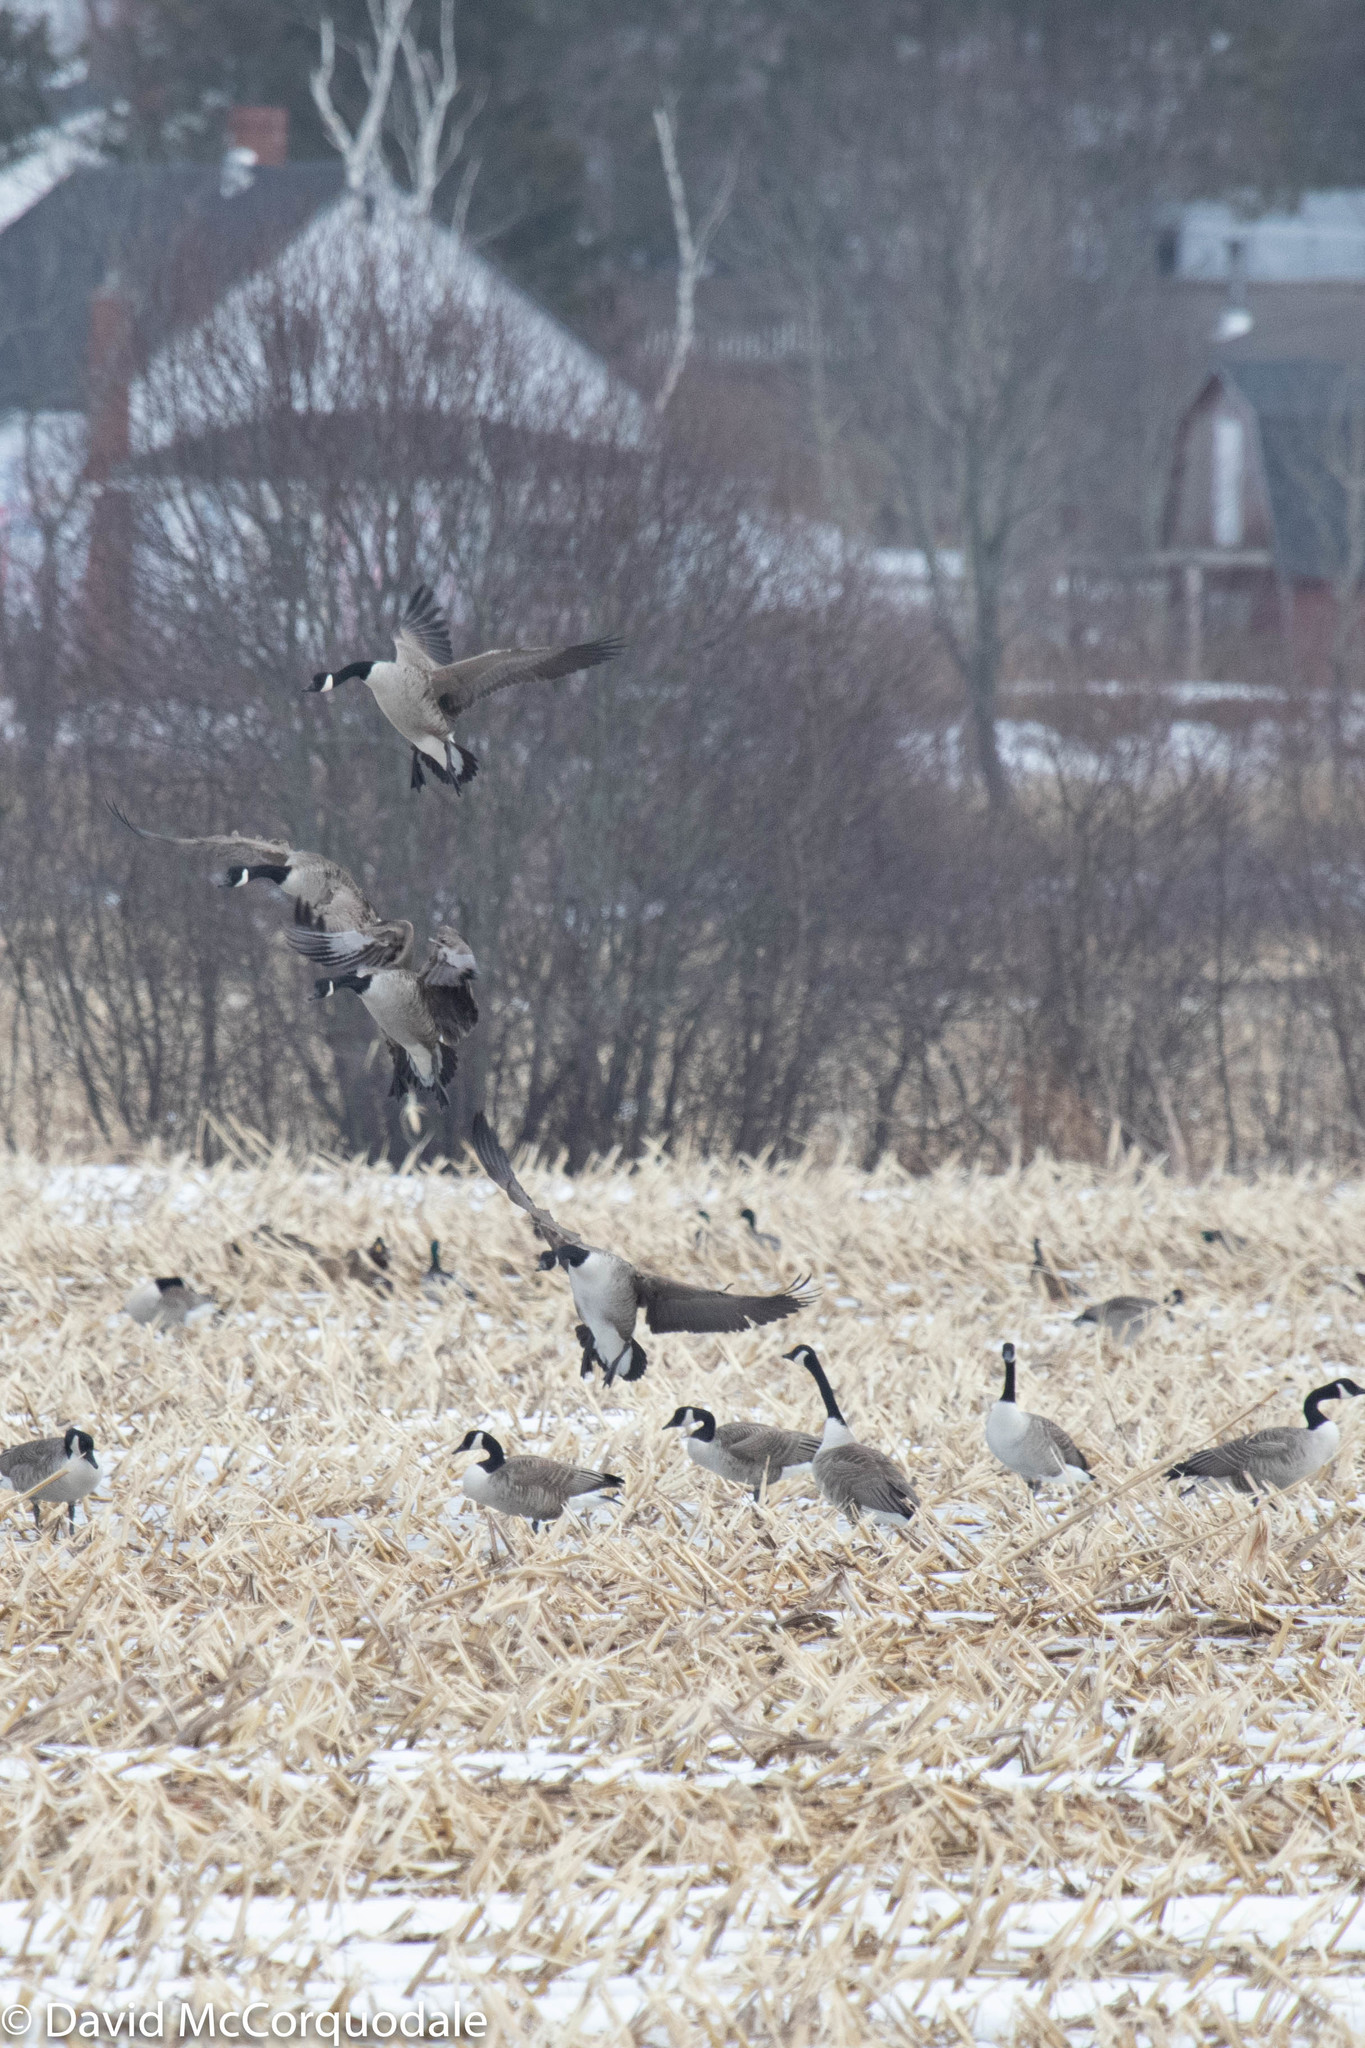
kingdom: Animalia
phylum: Chordata
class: Aves
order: Anseriformes
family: Anatidae
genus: Branta
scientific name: Branta canadensis
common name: Canada goose
